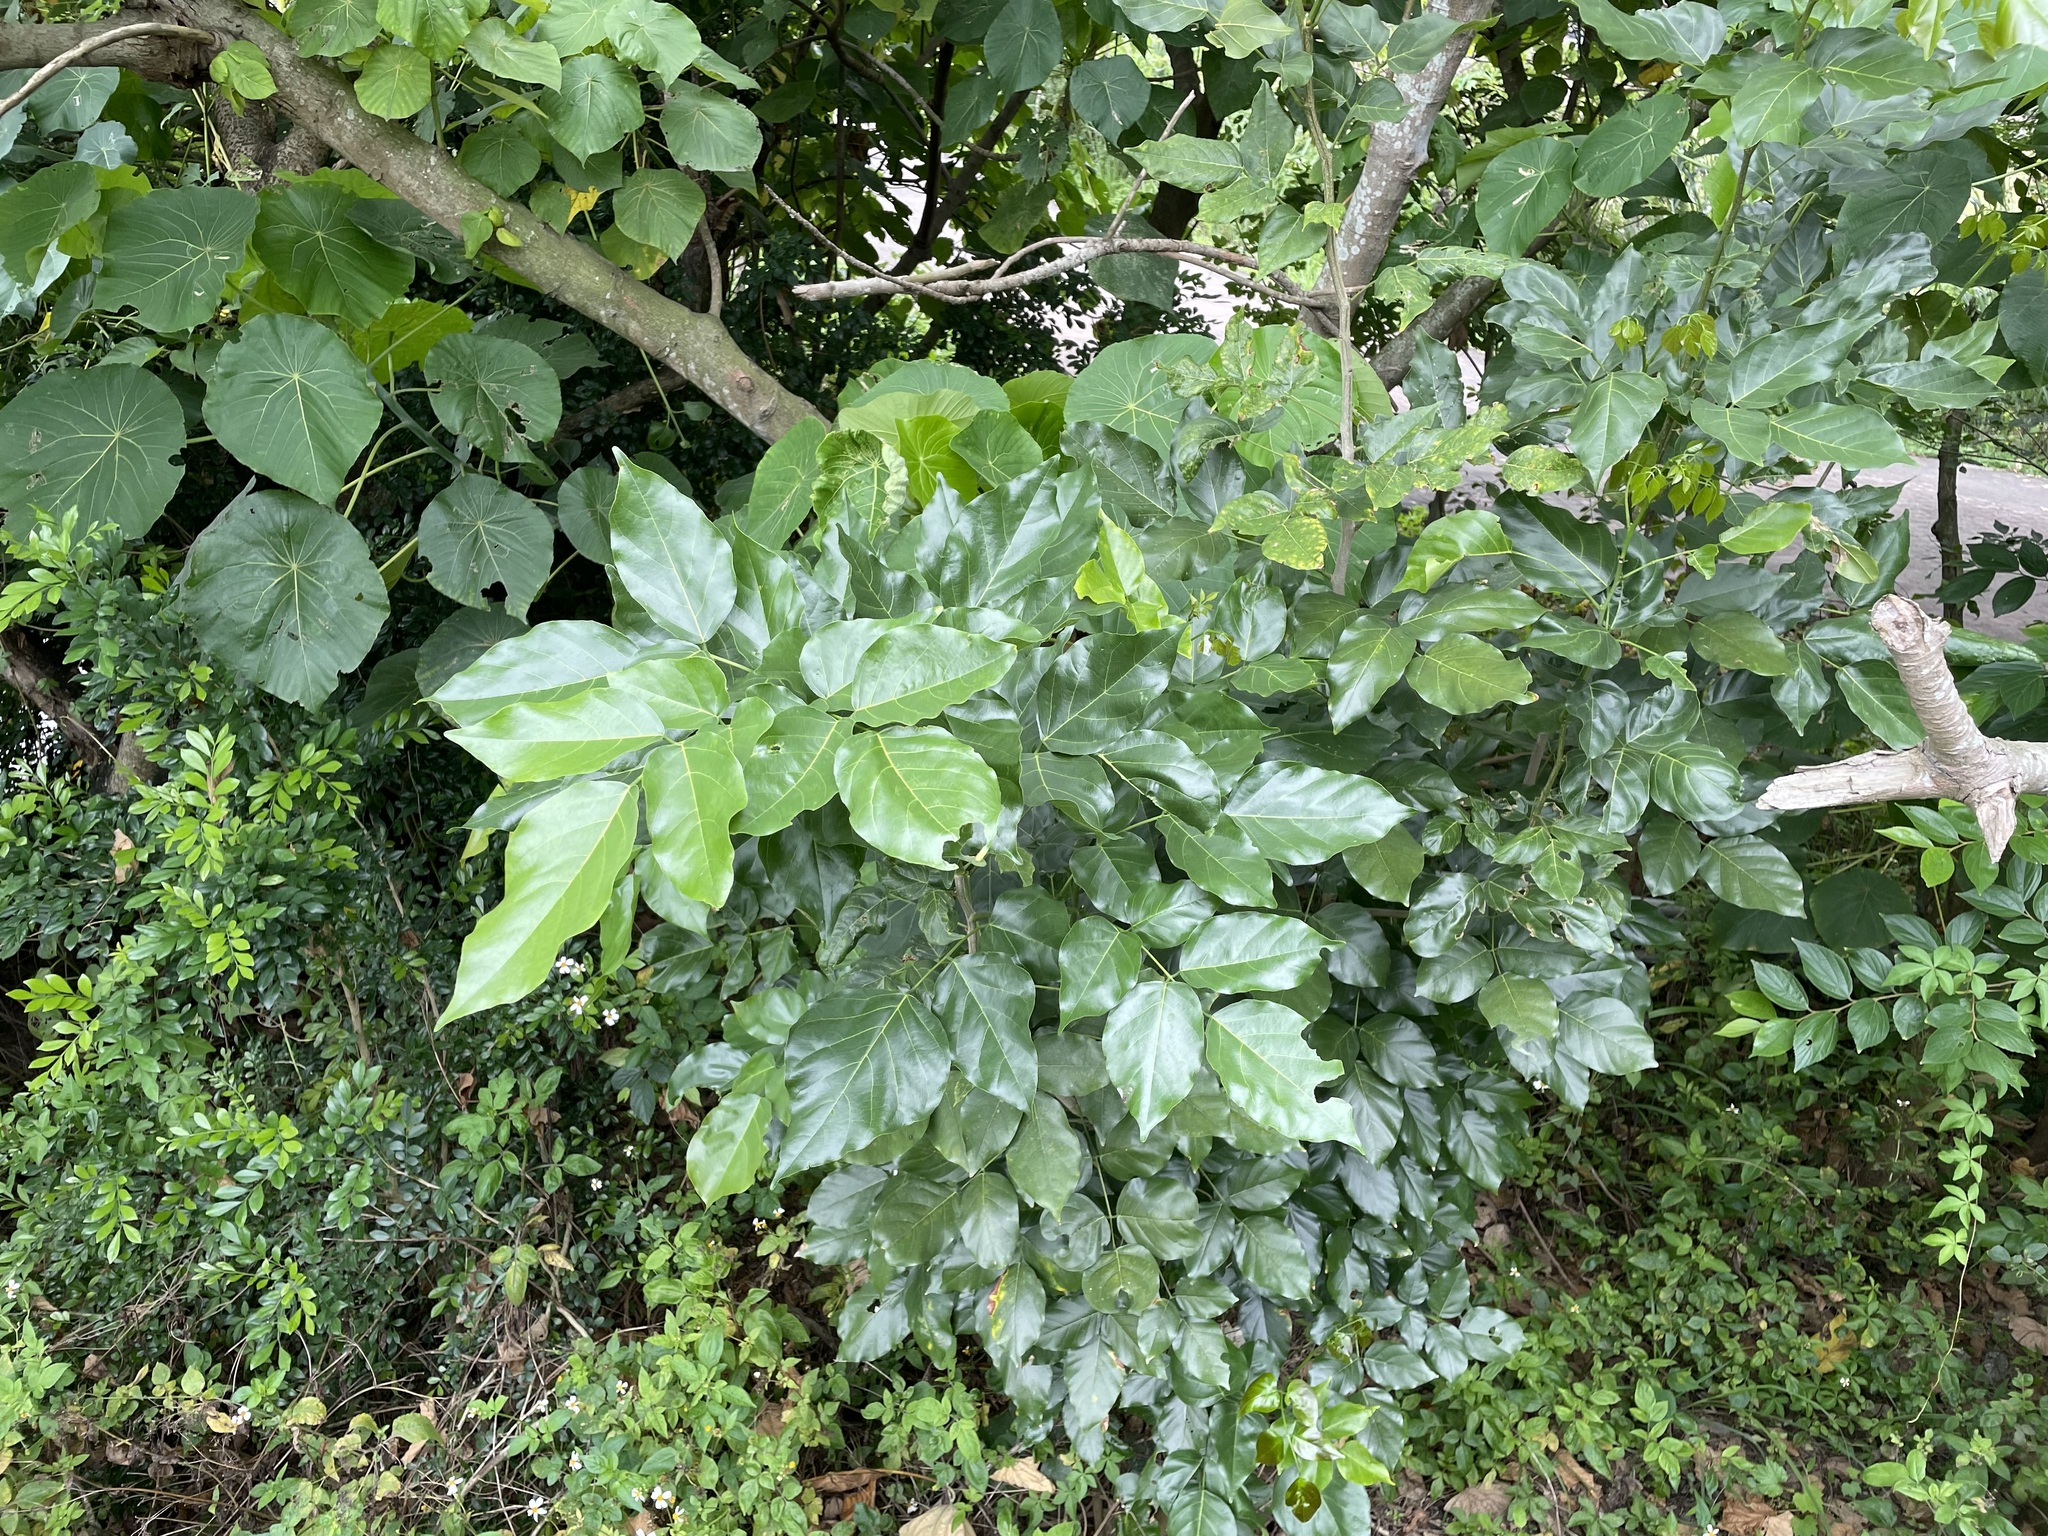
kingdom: Plantae
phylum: Tracheophyta
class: Magnoliopsida
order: Fabales
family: Fabaceae
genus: Pongamia
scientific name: Pongamia pinnata
